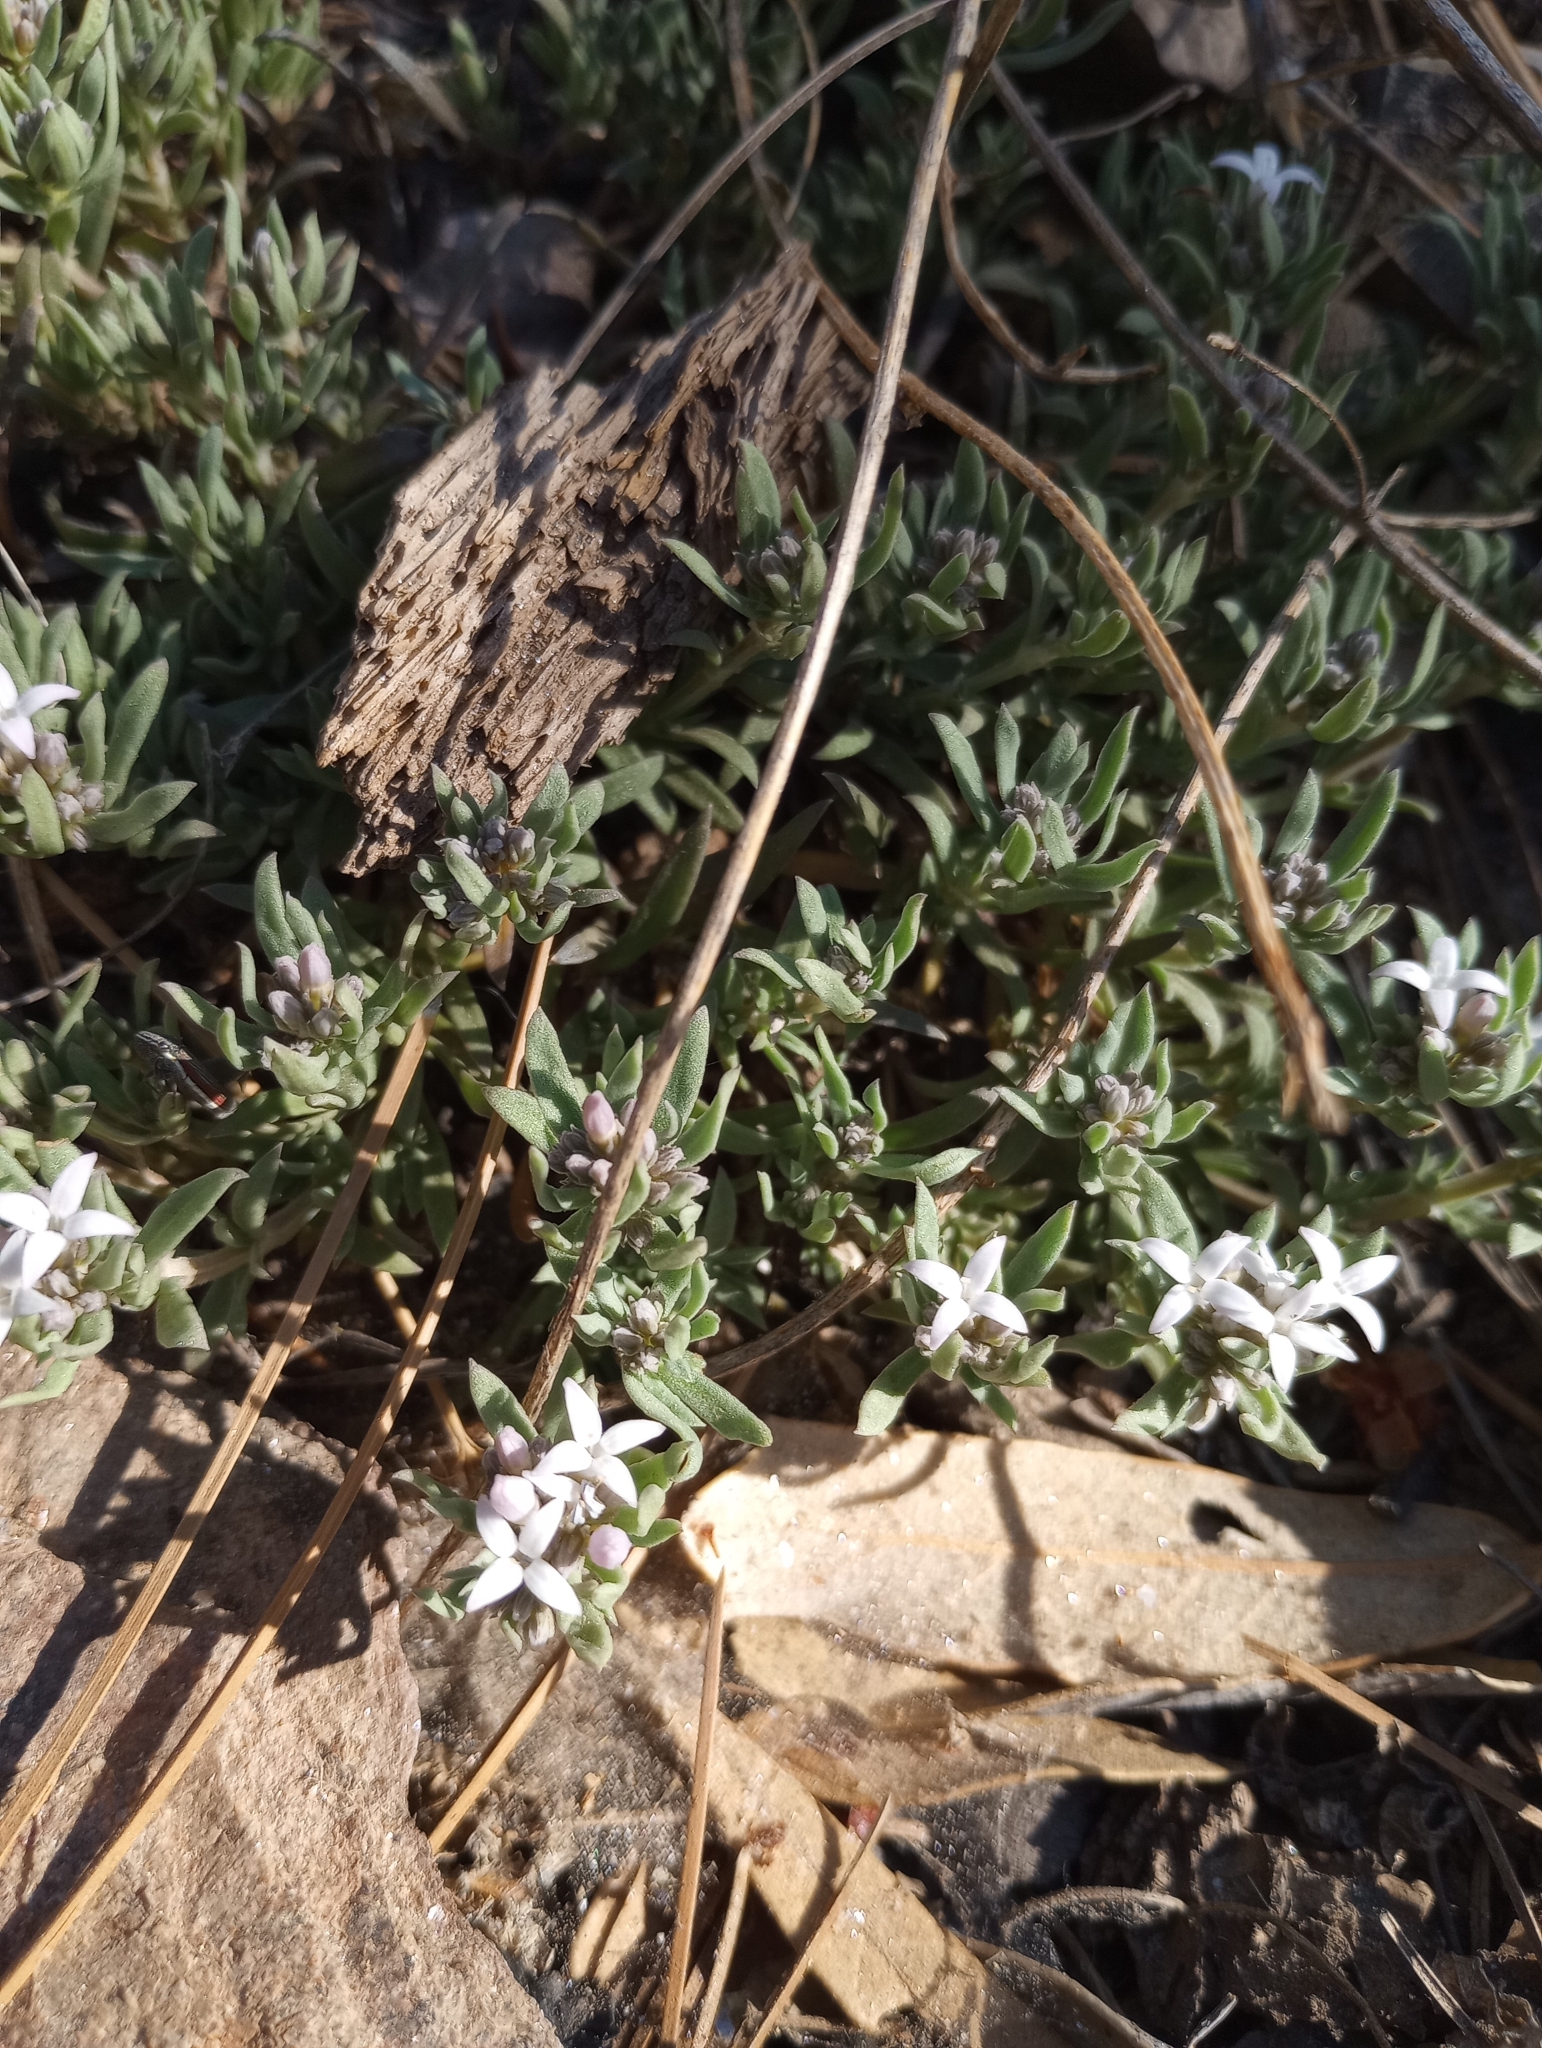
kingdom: Plantae
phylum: Tracheophyta
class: Magnoliopsida
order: Gentianales
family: Rubiaceae
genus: Houstonia
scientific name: Houstonia wrightii
